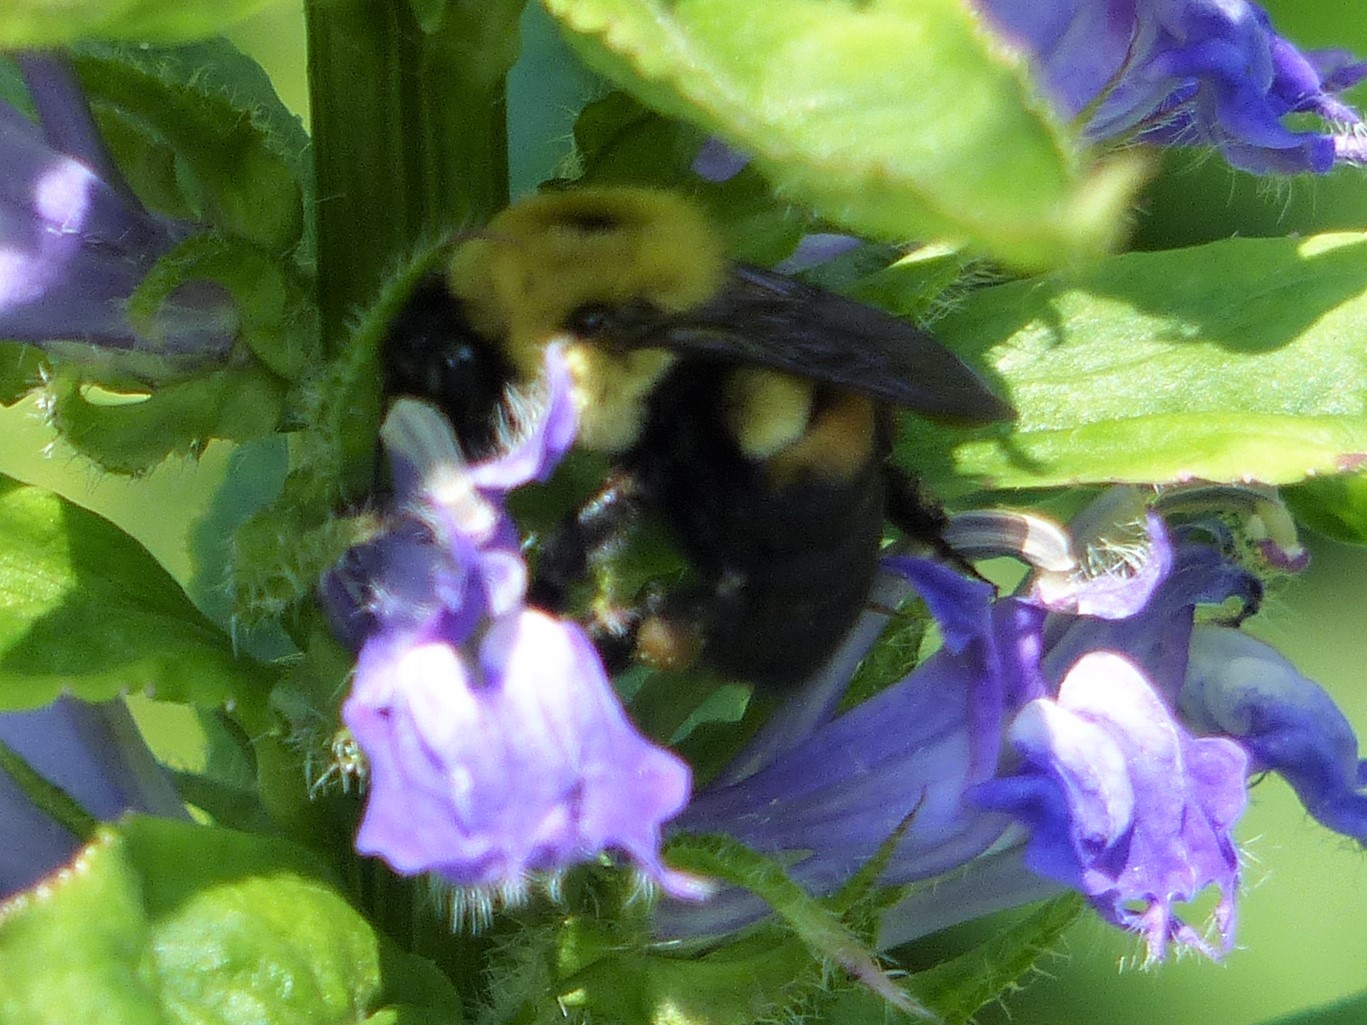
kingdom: Animalia
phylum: Arthropoda
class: Insecta
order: Hymenoptera
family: Apidae
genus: Bombus
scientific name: Bombus griseocollis
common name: Brown-belted bumble bee
